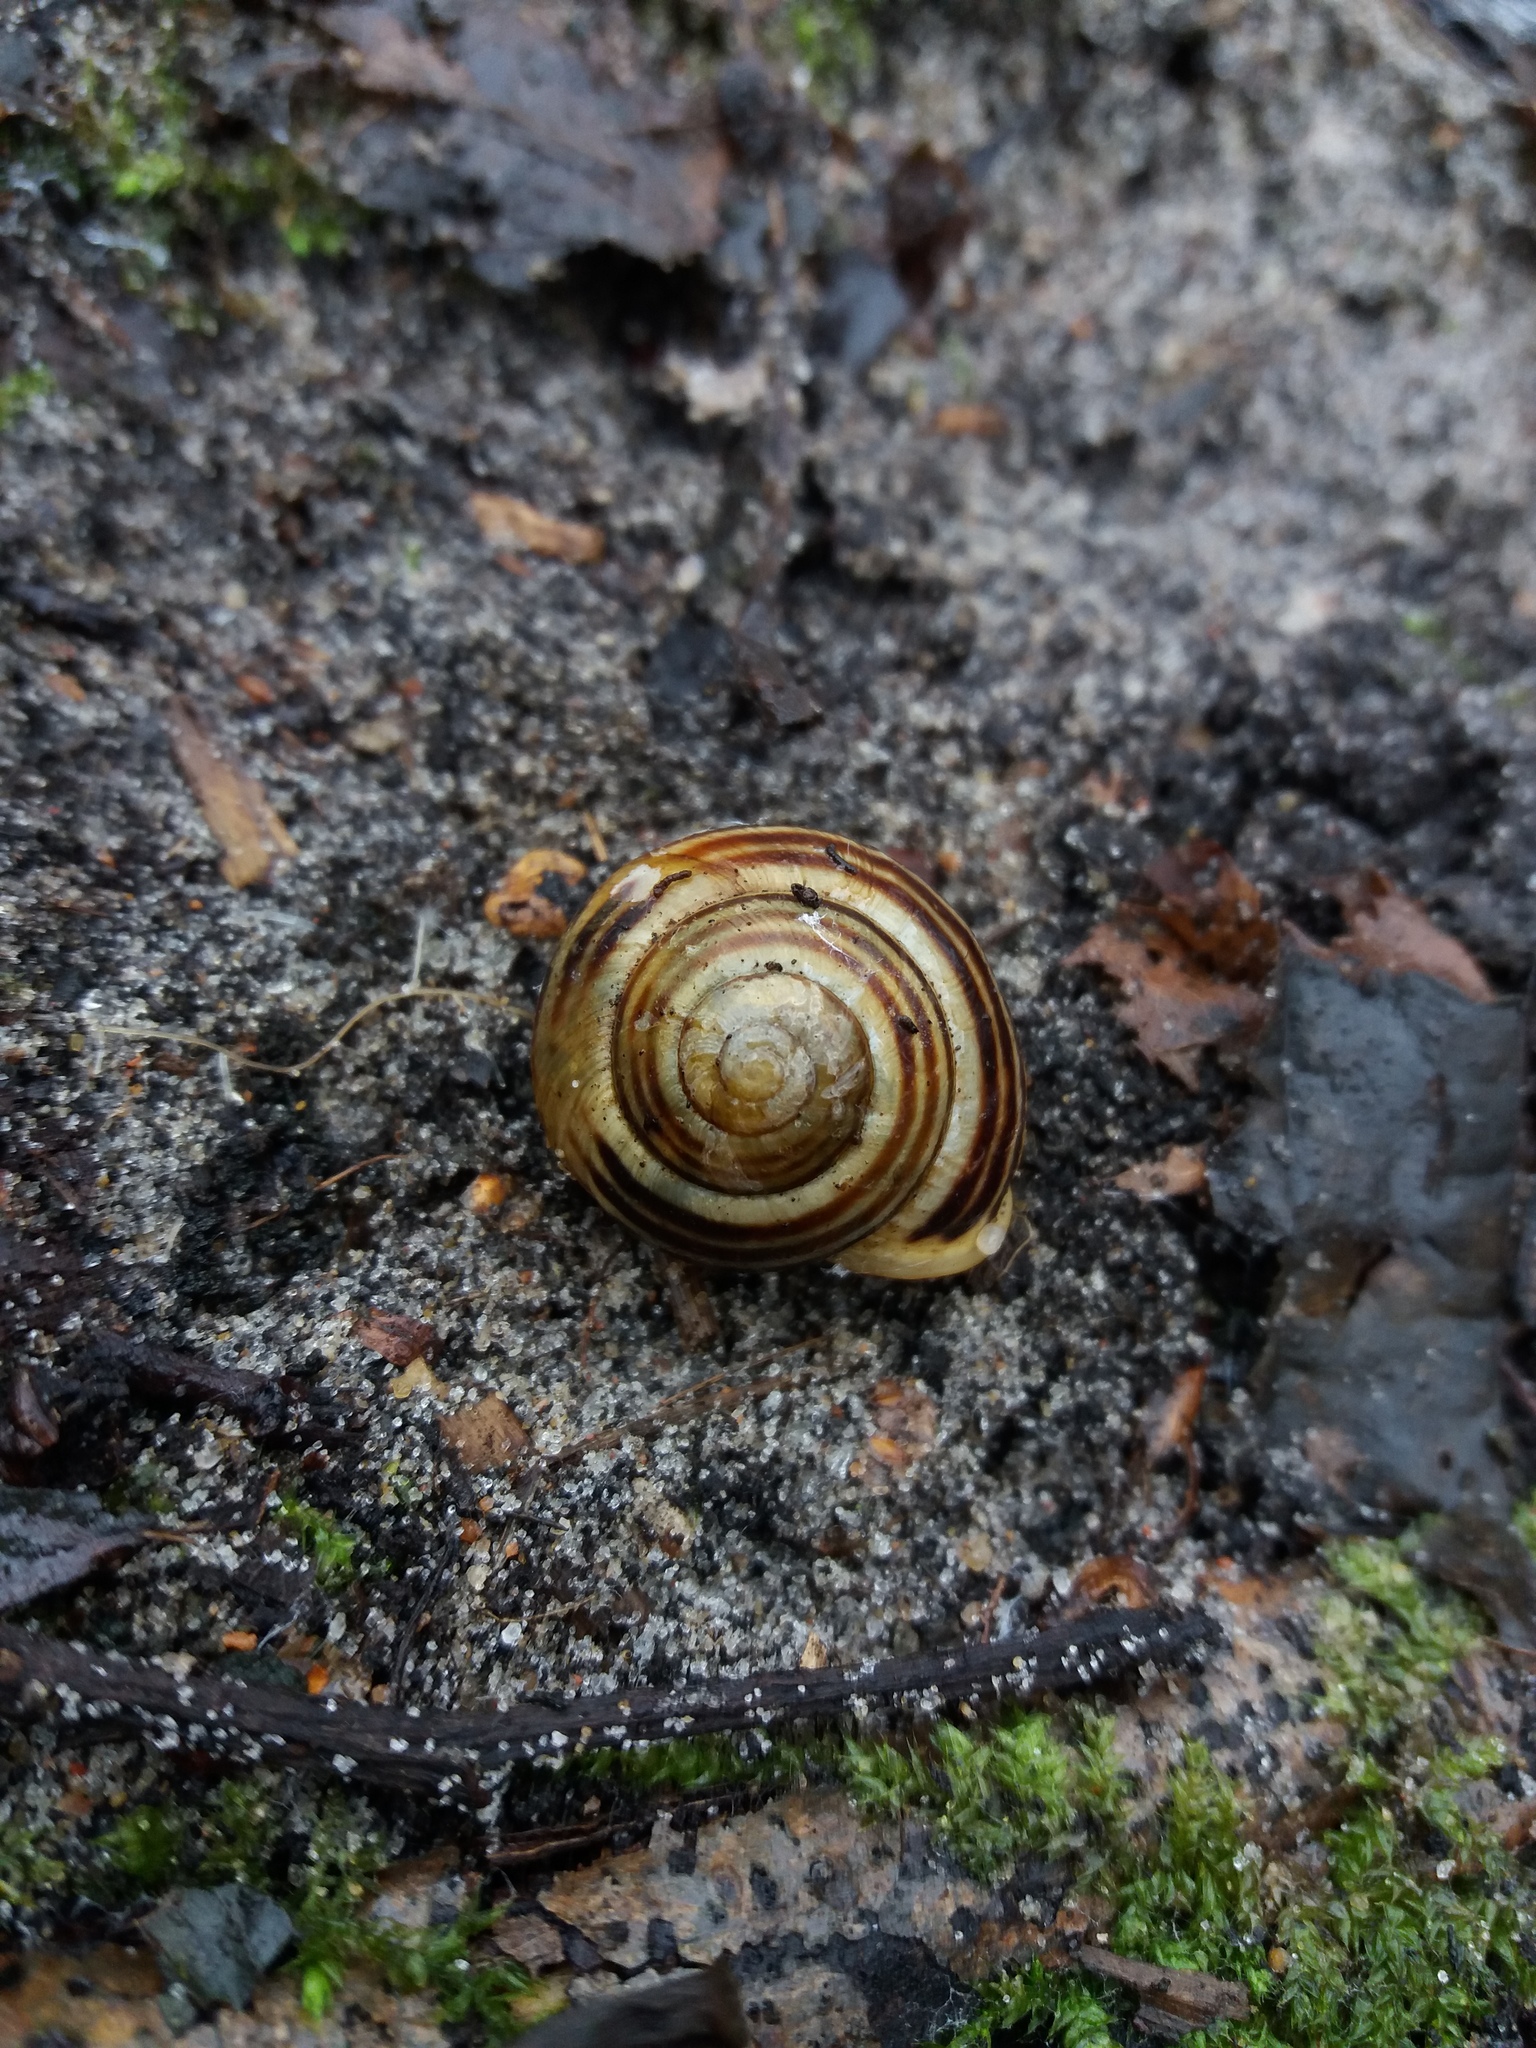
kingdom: Animalia
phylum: Mollusca
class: Gastropoda
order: Stylommatophora
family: Helicidae
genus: Cepaea
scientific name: Cepaea hortensis
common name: White-lip gardensnail
